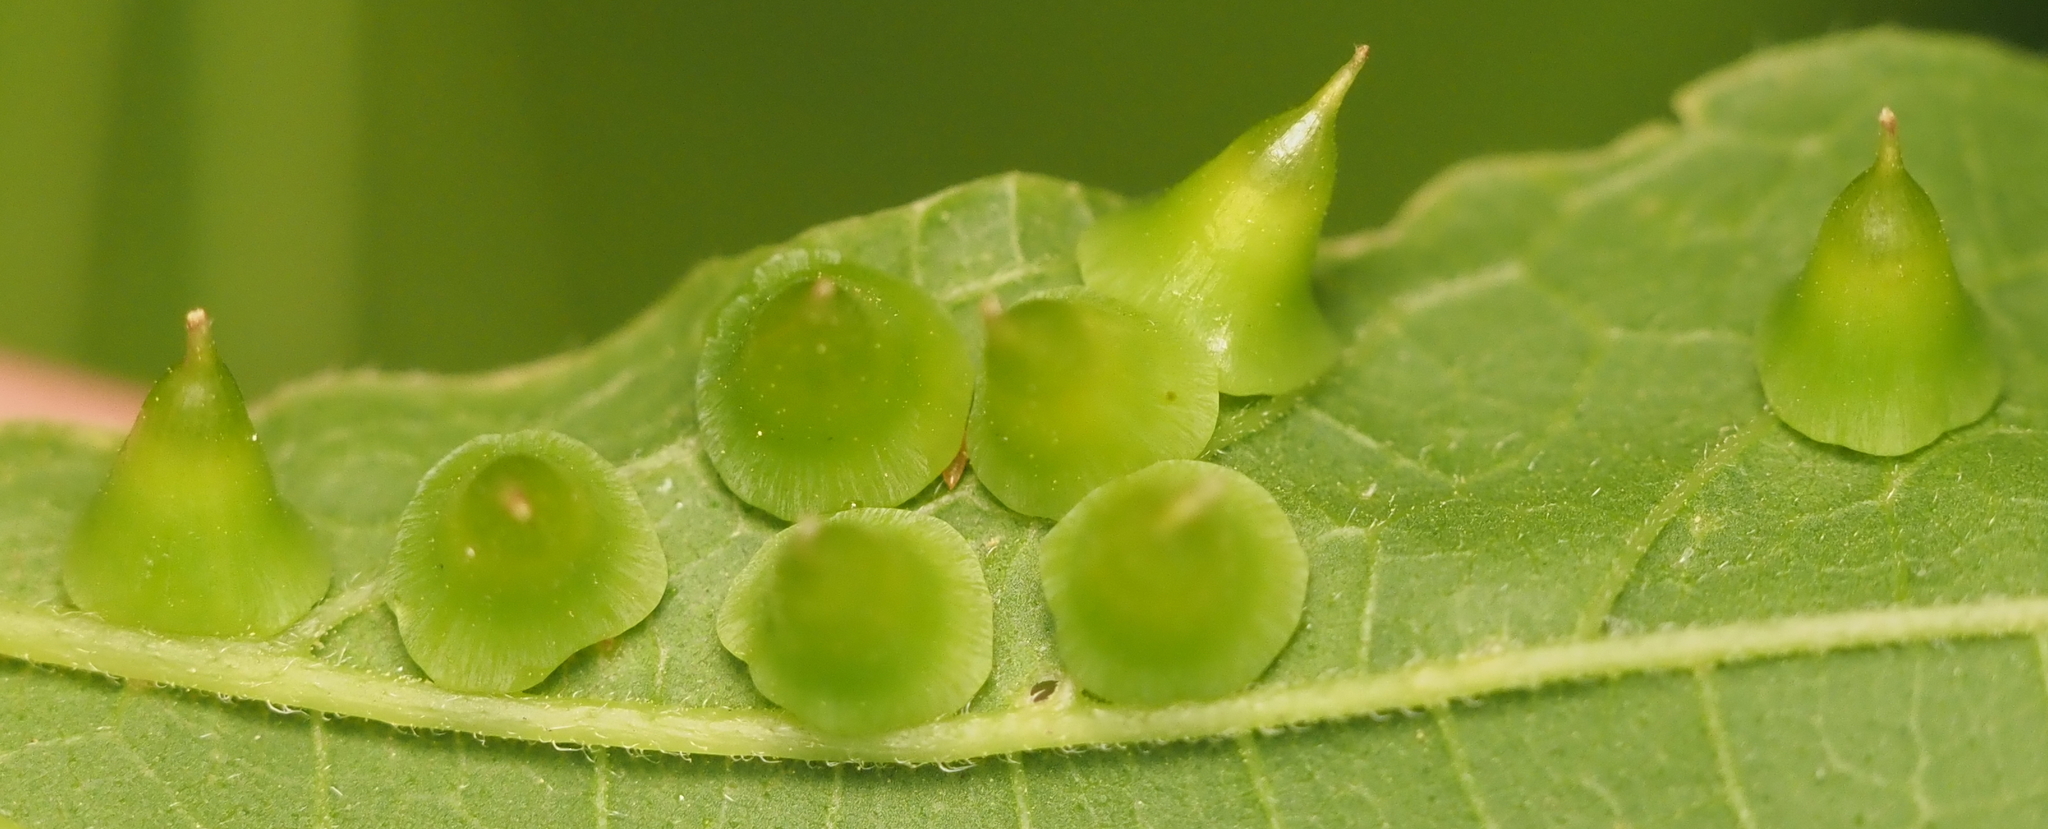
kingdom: Animalia
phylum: Arthropoda
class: Insecta
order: Diptera
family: Cecidomyiidae
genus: Celticecis
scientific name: Celticecis spiniformis
